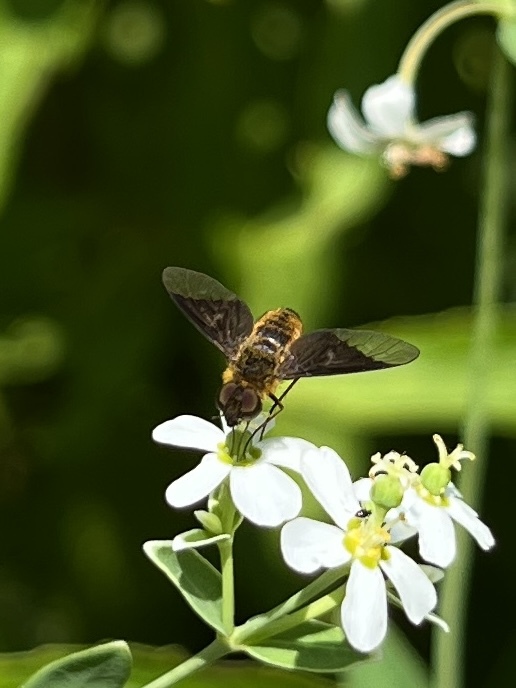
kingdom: Animalia
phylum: Arthropoda
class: Insecta
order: Diptera
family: Bombyliidae
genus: Chrysanthrax
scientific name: Chrysanthrax cypris
